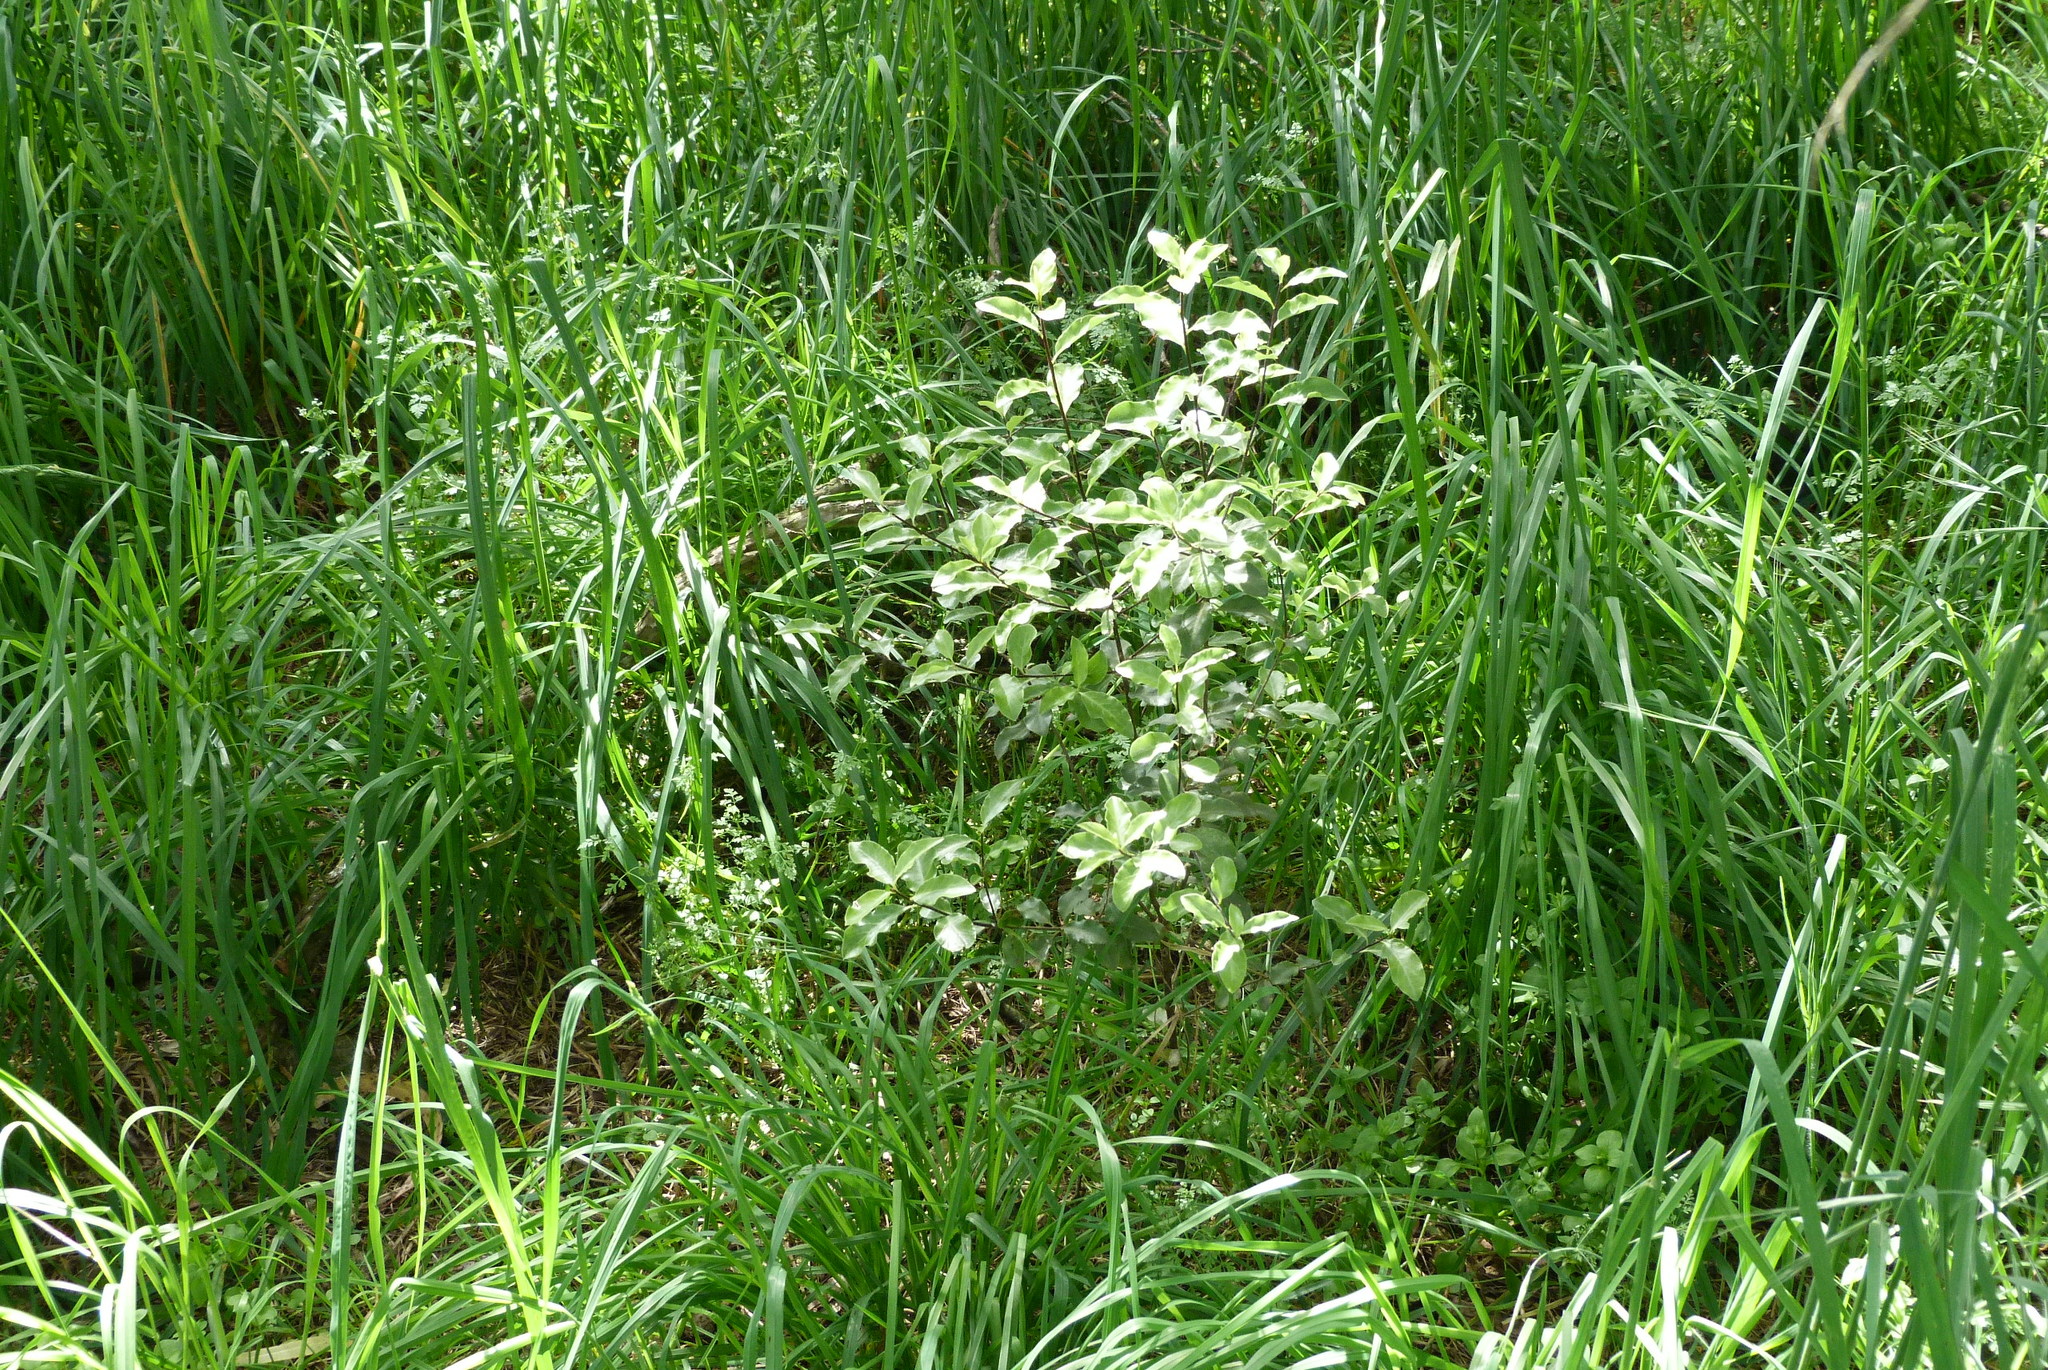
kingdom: Plantae
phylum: Tracheophyta
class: Magnoliopsida
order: Apiales
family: Pittosporaceae
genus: Pittosporum
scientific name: Pittosporum tenuifolium
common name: Kohuhu
